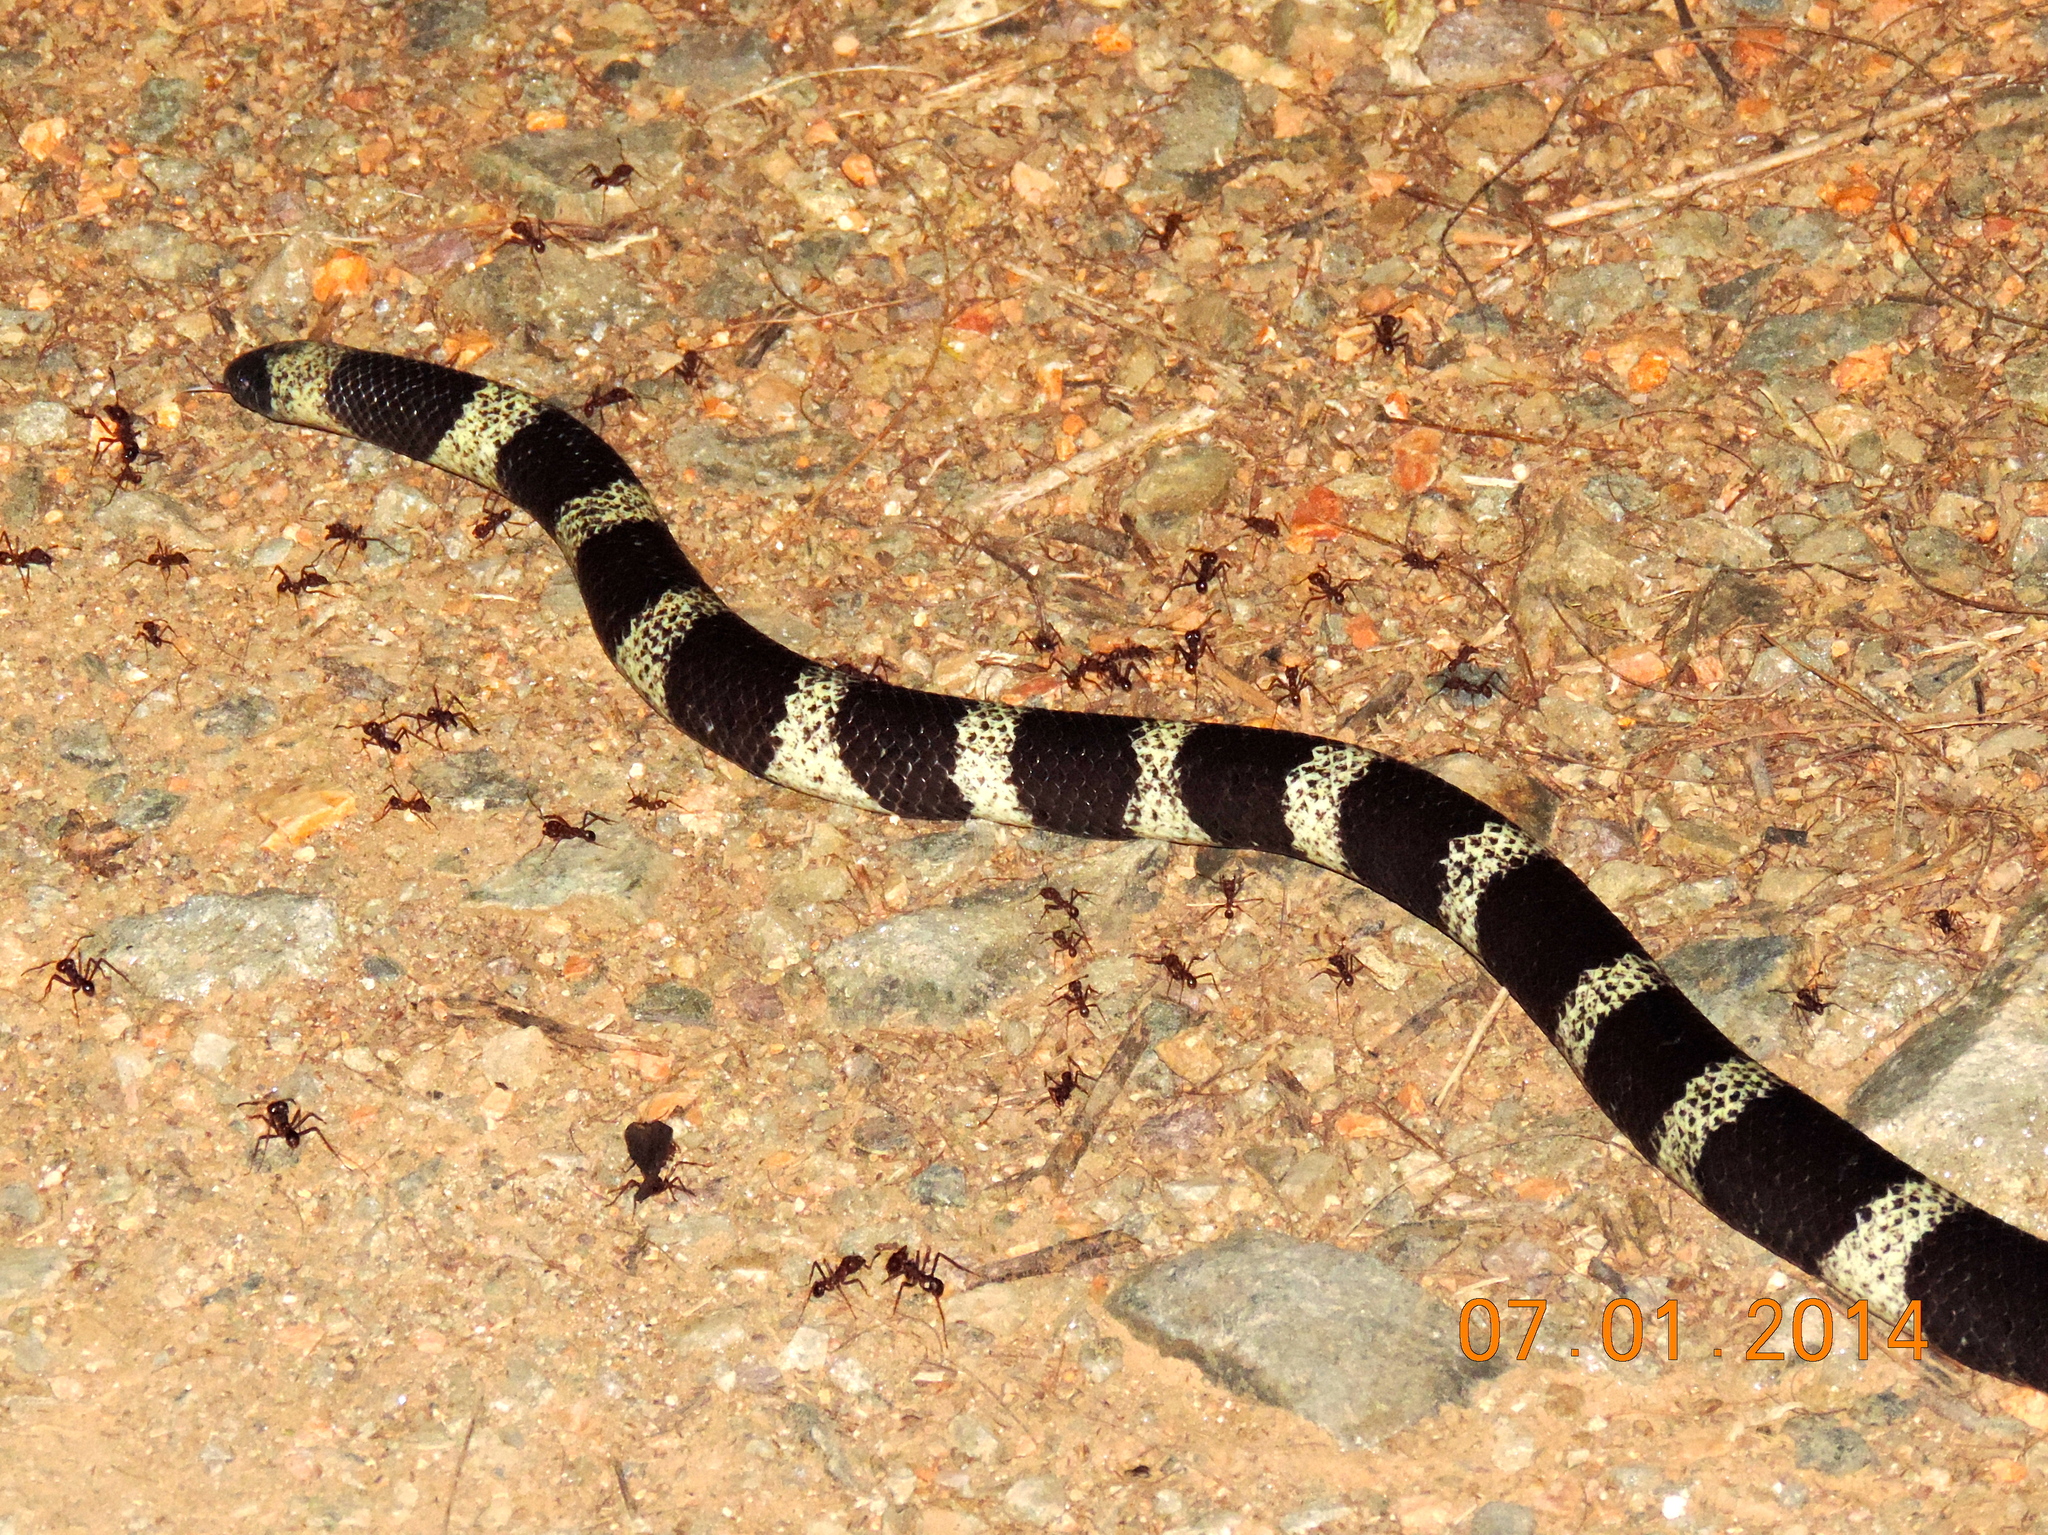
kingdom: Animalia
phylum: Chordata
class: Squamata
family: Colubridae
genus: Sympholis
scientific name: Sympholis lippiens
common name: Mexican short-tail snake
